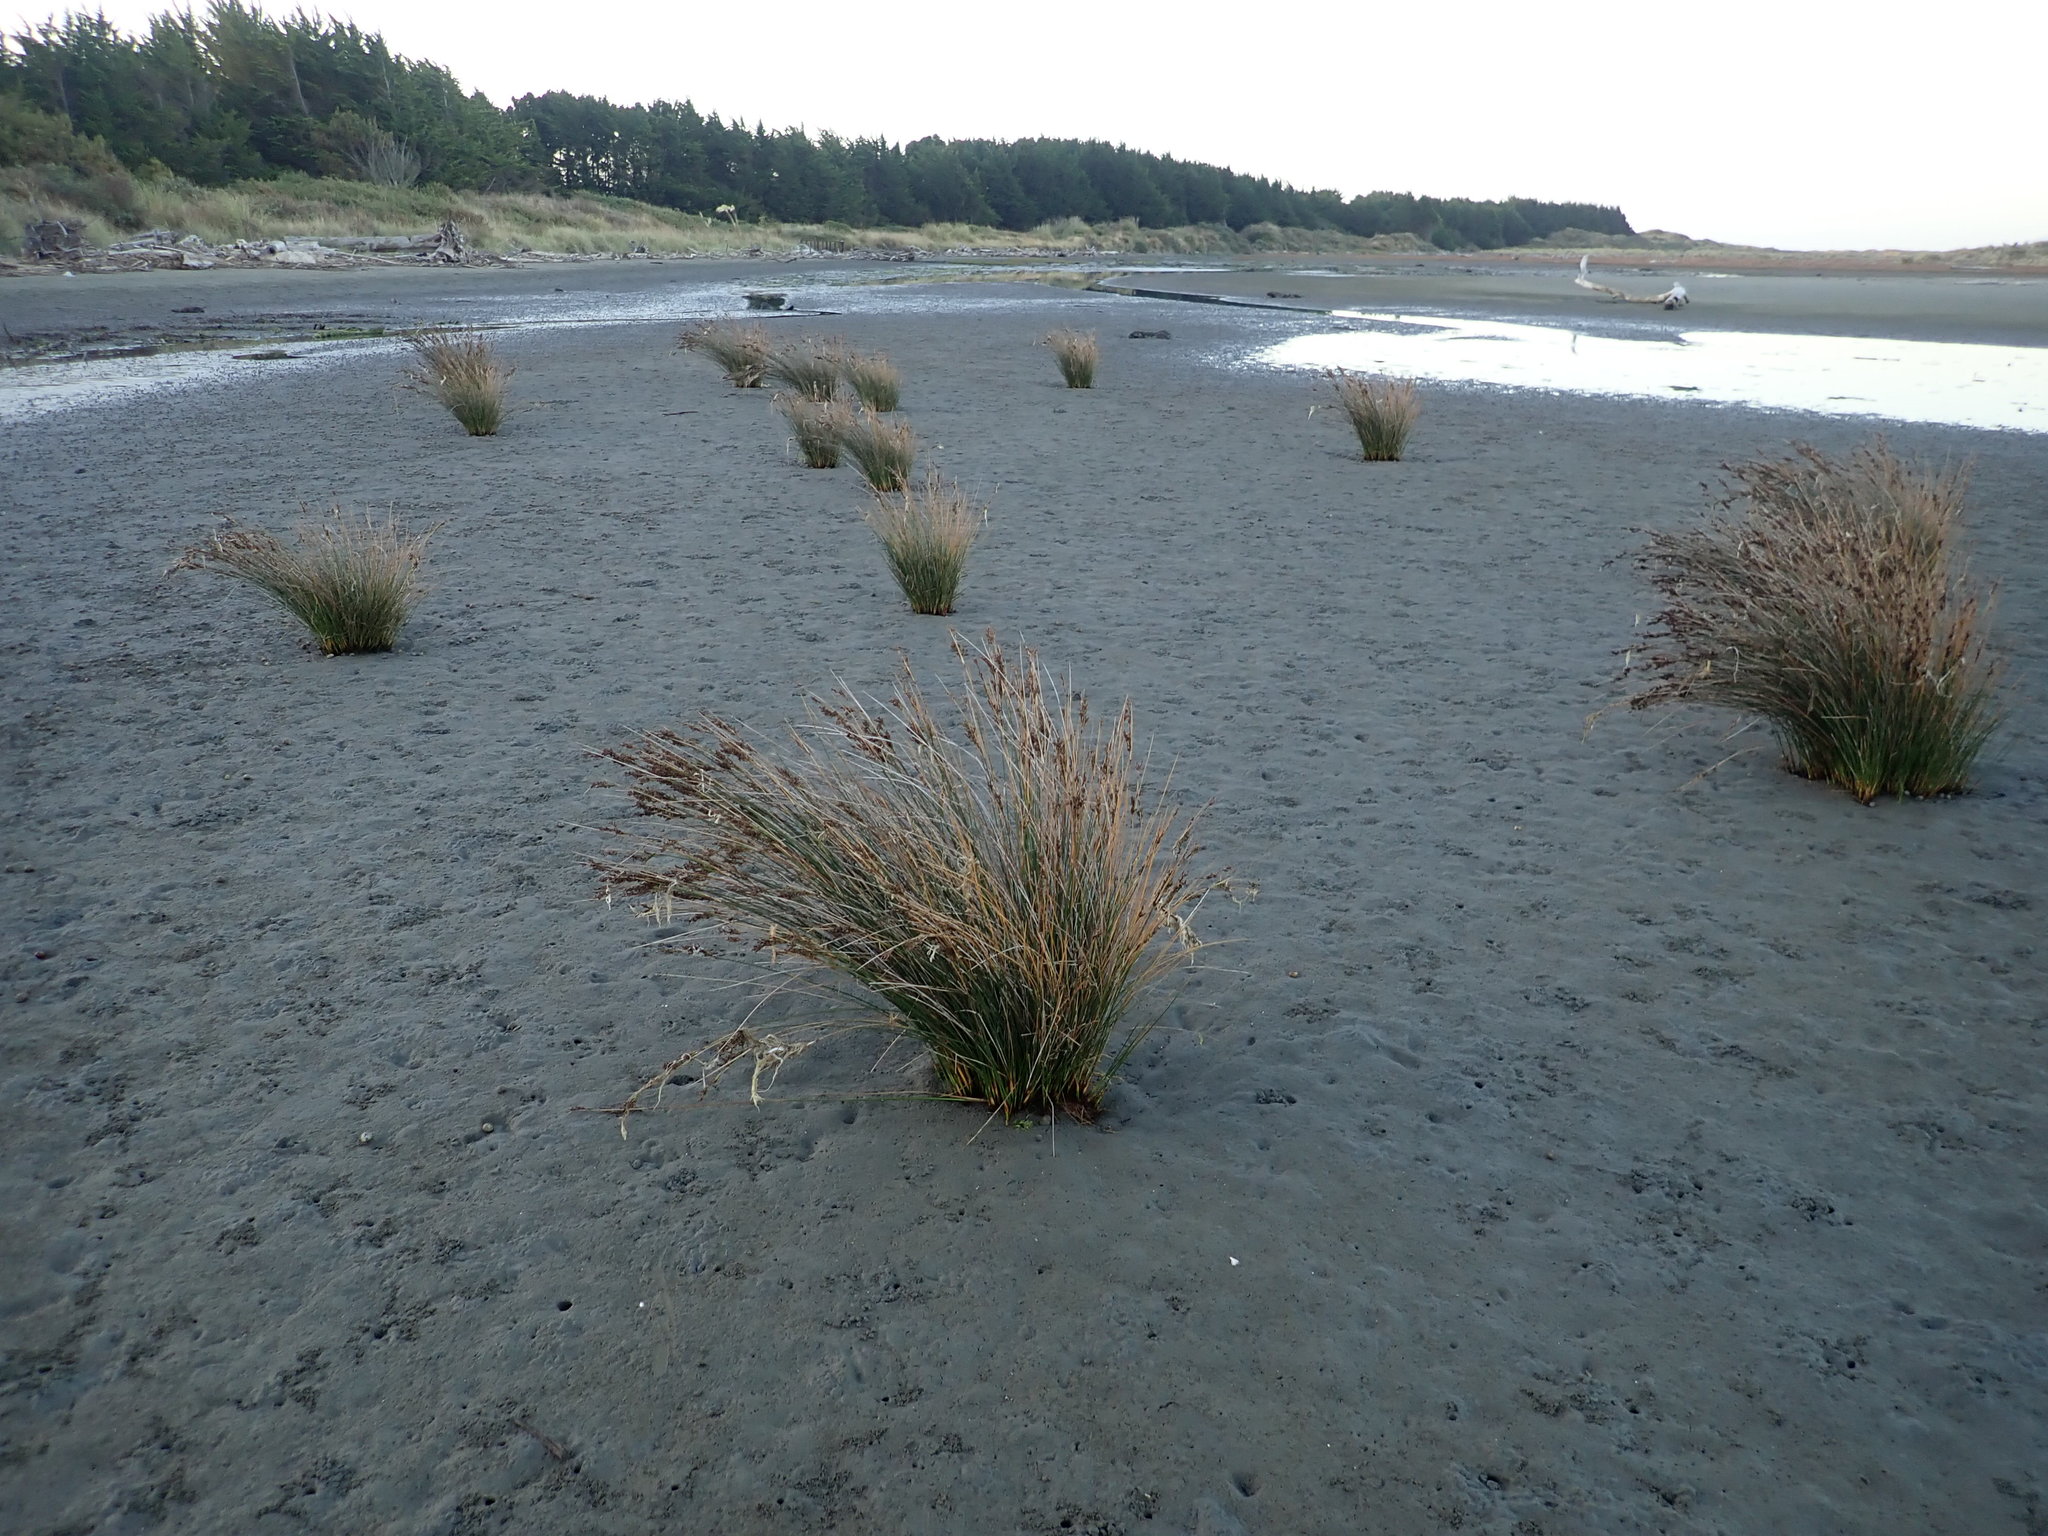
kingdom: Plantae
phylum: Tracheophyta
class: Liliopsida
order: Poales
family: Juncaceae
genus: Juncus
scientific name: Juncus kraussii
